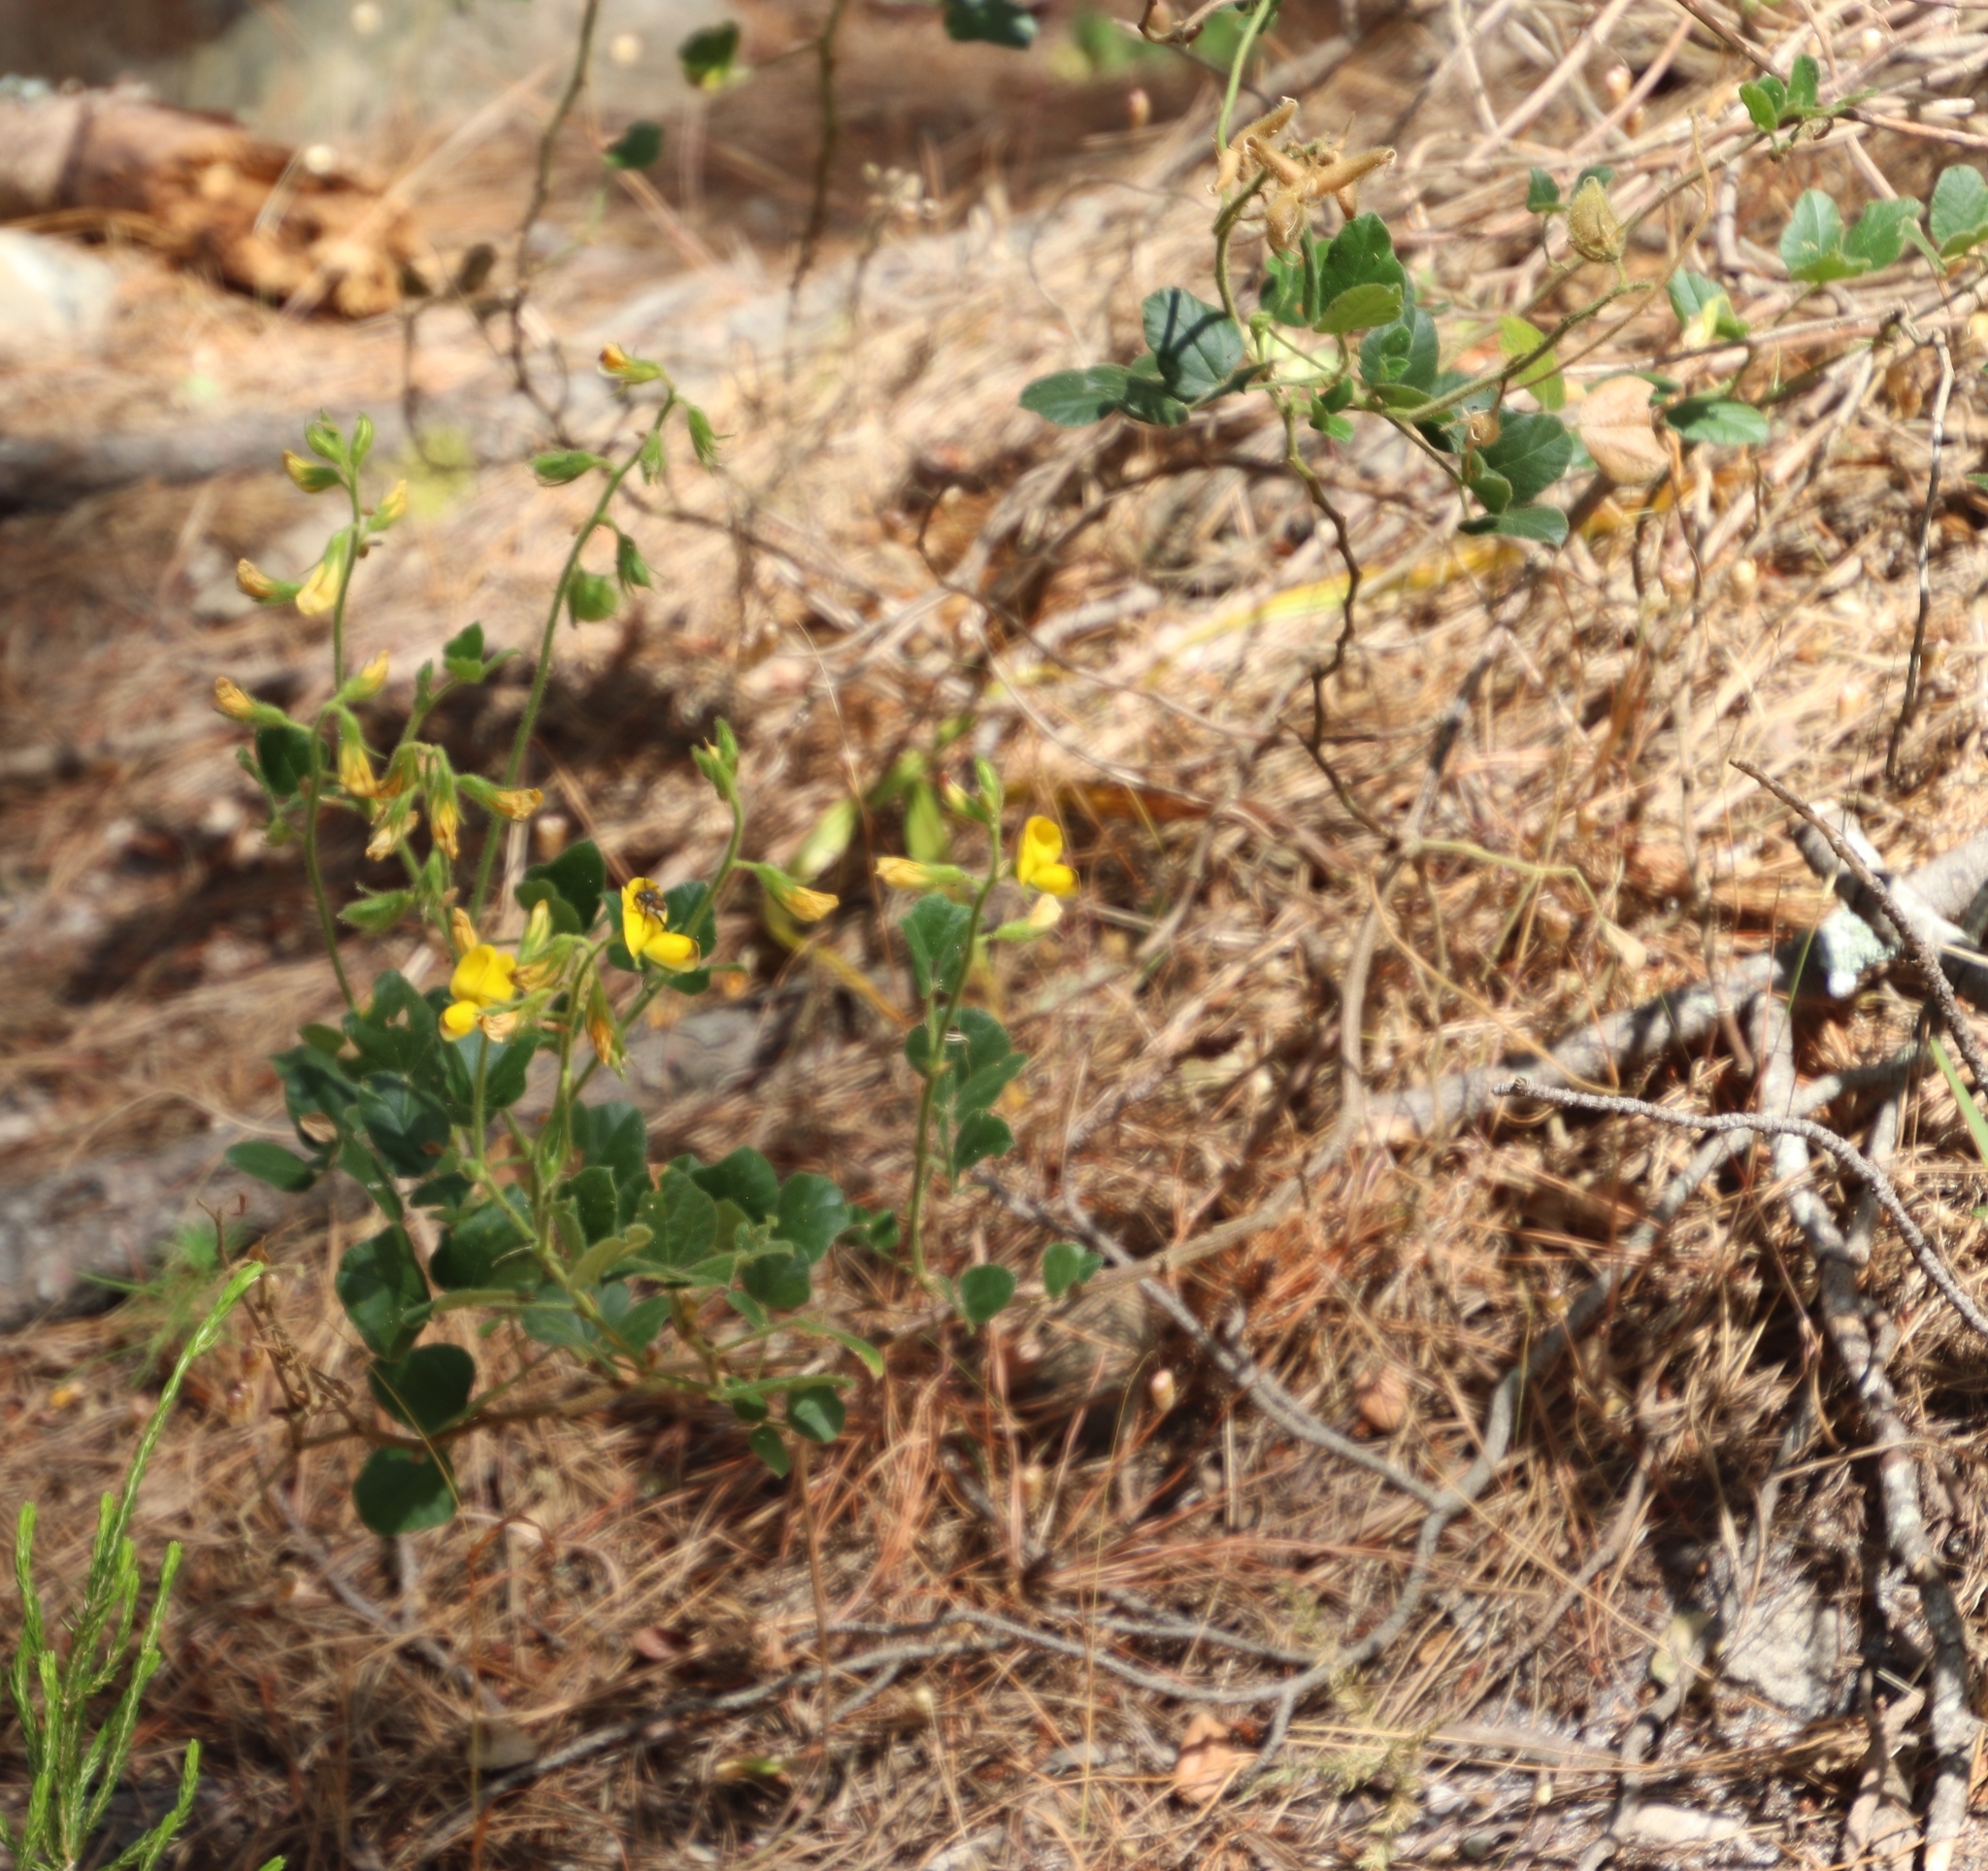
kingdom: Plantae
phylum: Tracheophyta
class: Magnoliopsida
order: Fabales
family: Fabaceae
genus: Bolusafra
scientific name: Bolusafra bituminosa
